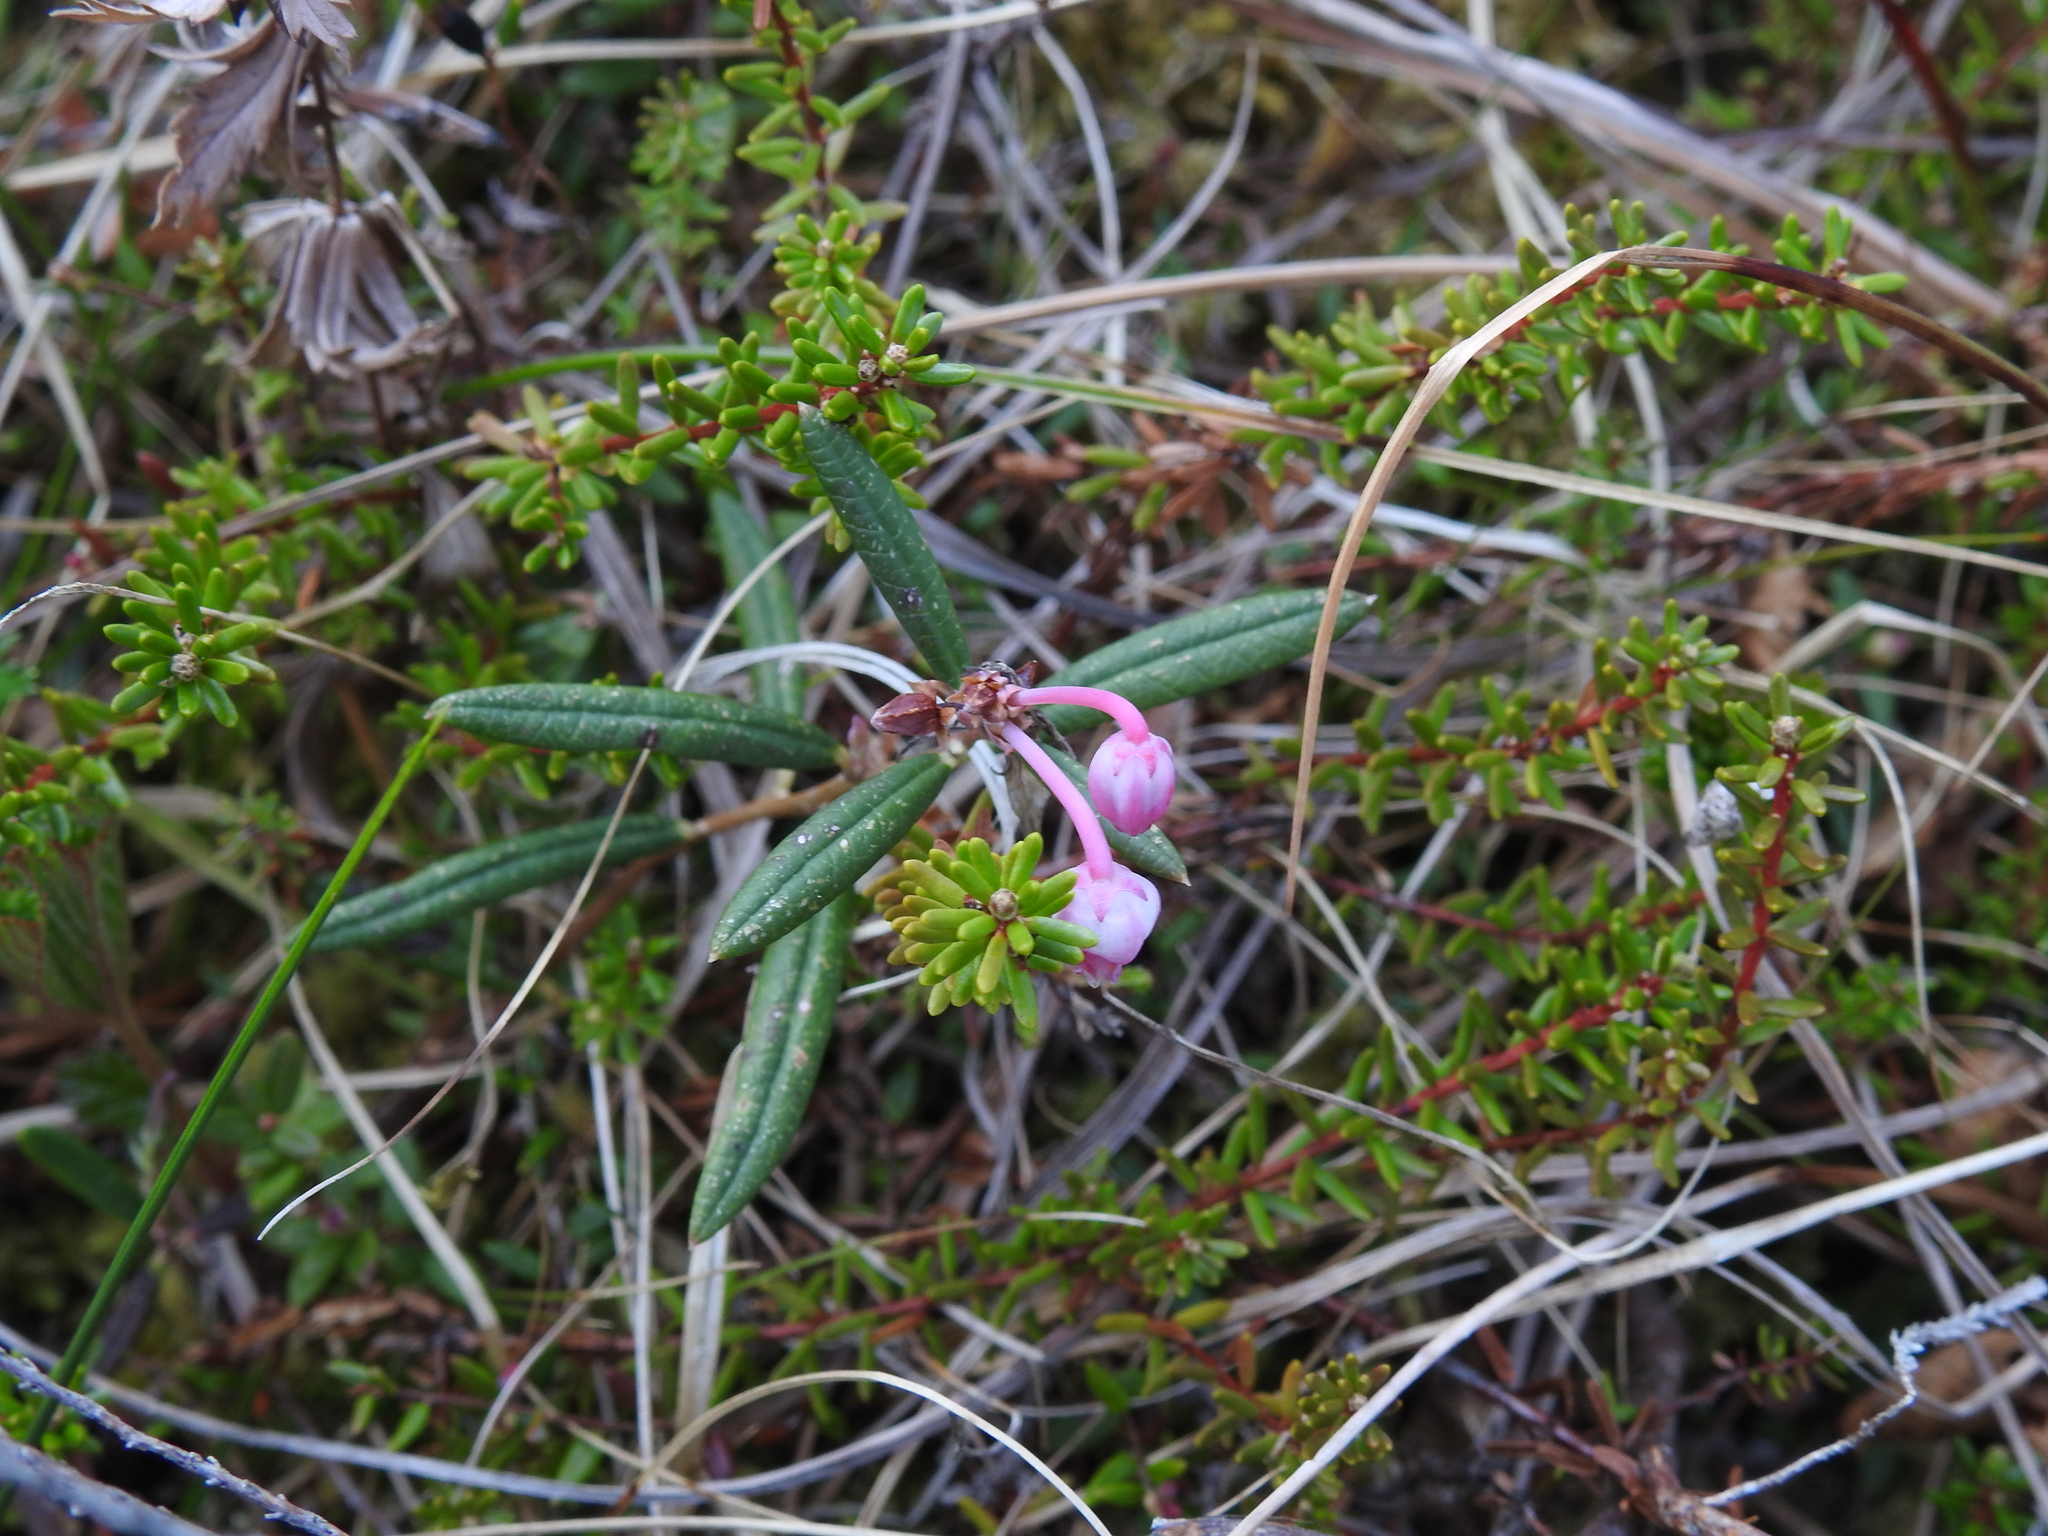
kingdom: Plantae
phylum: Tracheophyta
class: Magnoliopsida
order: Ericales
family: Ericaceae
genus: Andromeda
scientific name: Andromeda polifolia
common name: Bog-rosemary
